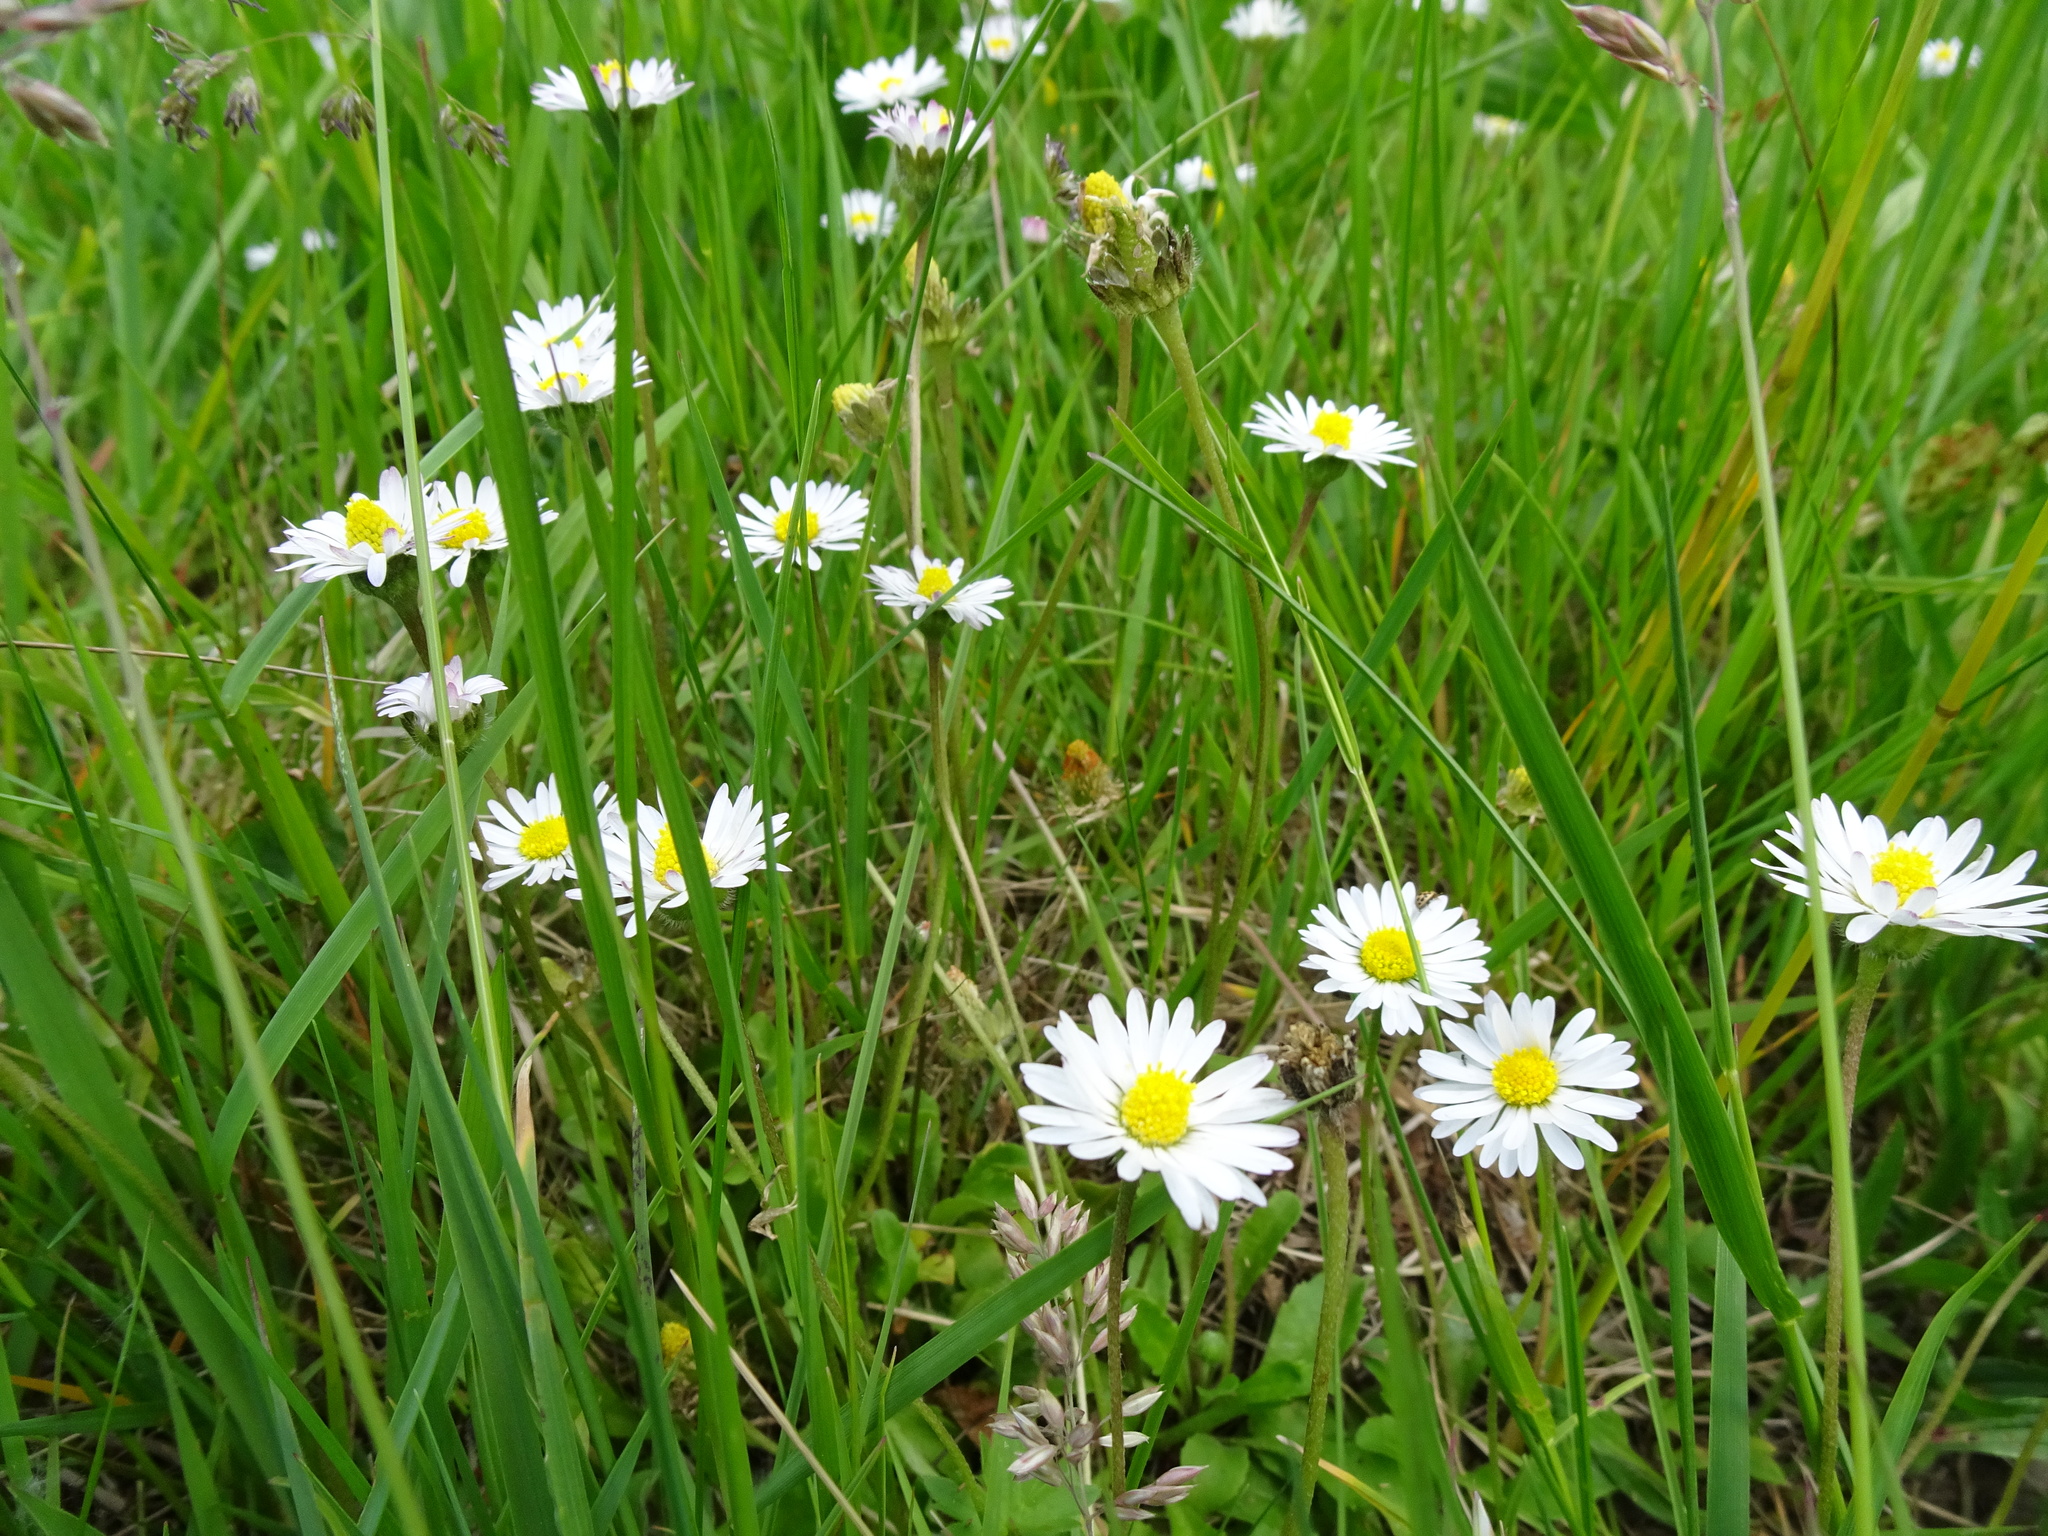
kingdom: Plantae
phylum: Tracheophyta
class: Magnoliopsida
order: Asterales
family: Asteraceae
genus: Bellis
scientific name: Bellis perennis
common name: Lawndaisy
